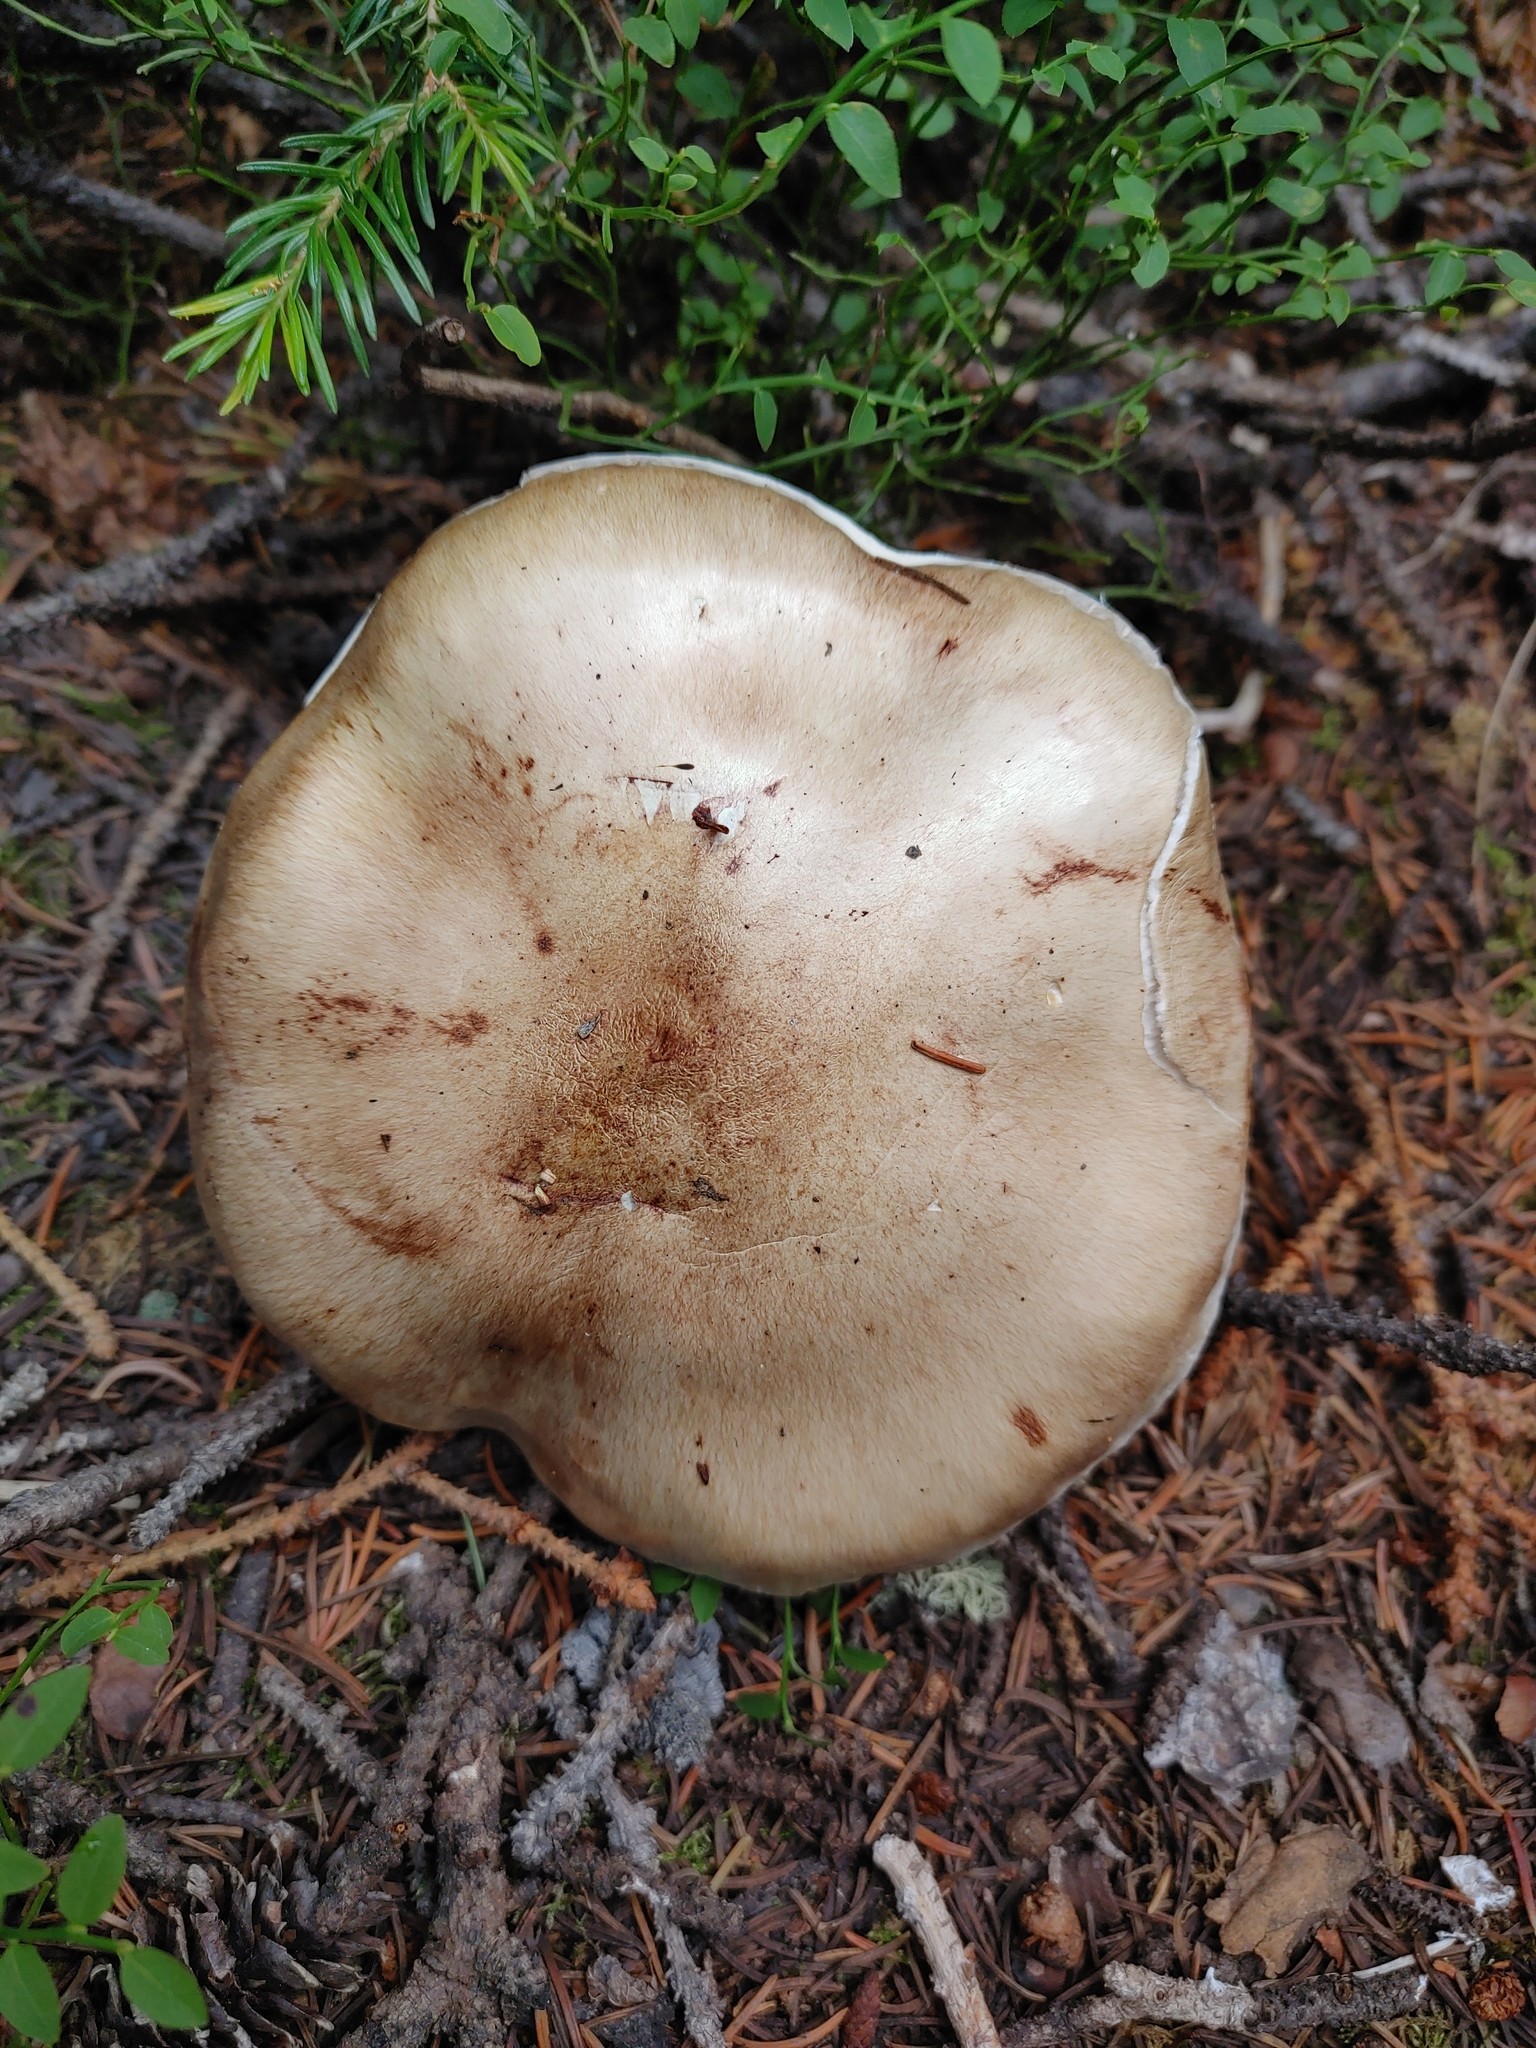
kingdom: Fungi
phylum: Basidiomycota
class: Agaricomycetes
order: Agaricales
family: Hygrophoraceae
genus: Hygrophorus
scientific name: Hygrophorus erubescens
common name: Blotched woodwax
